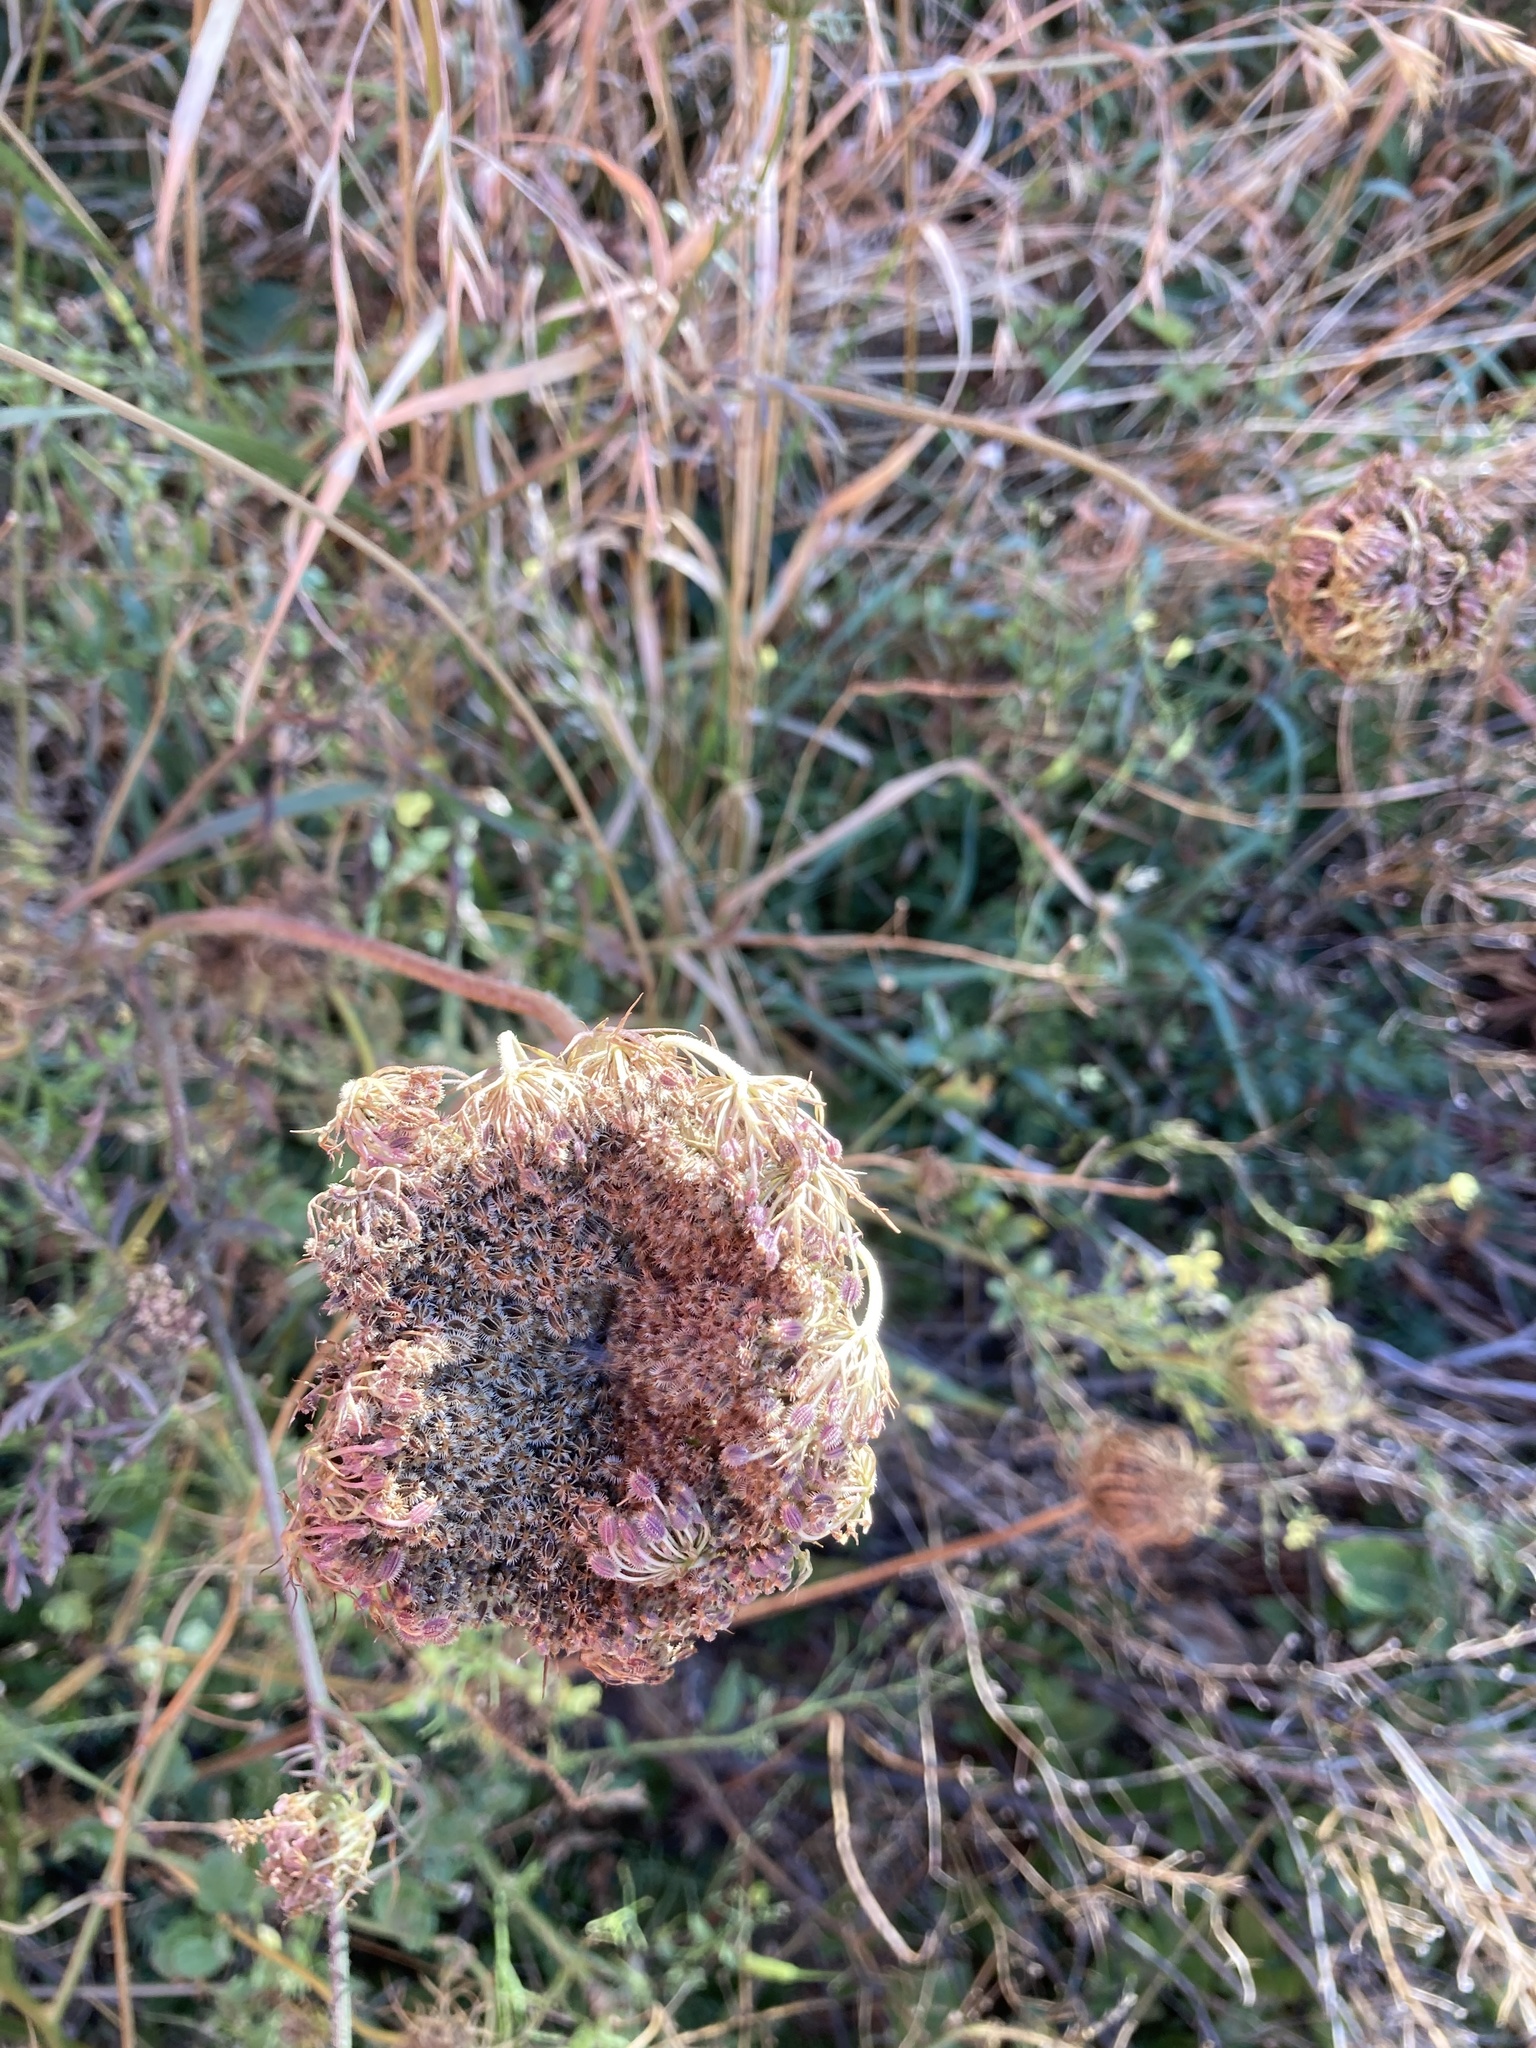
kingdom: Plantae
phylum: Tracheophyta
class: Magnoliopsida
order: Apiales
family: Apiaceae
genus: Daucus
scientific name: Daucus carota
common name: Wild carrot
